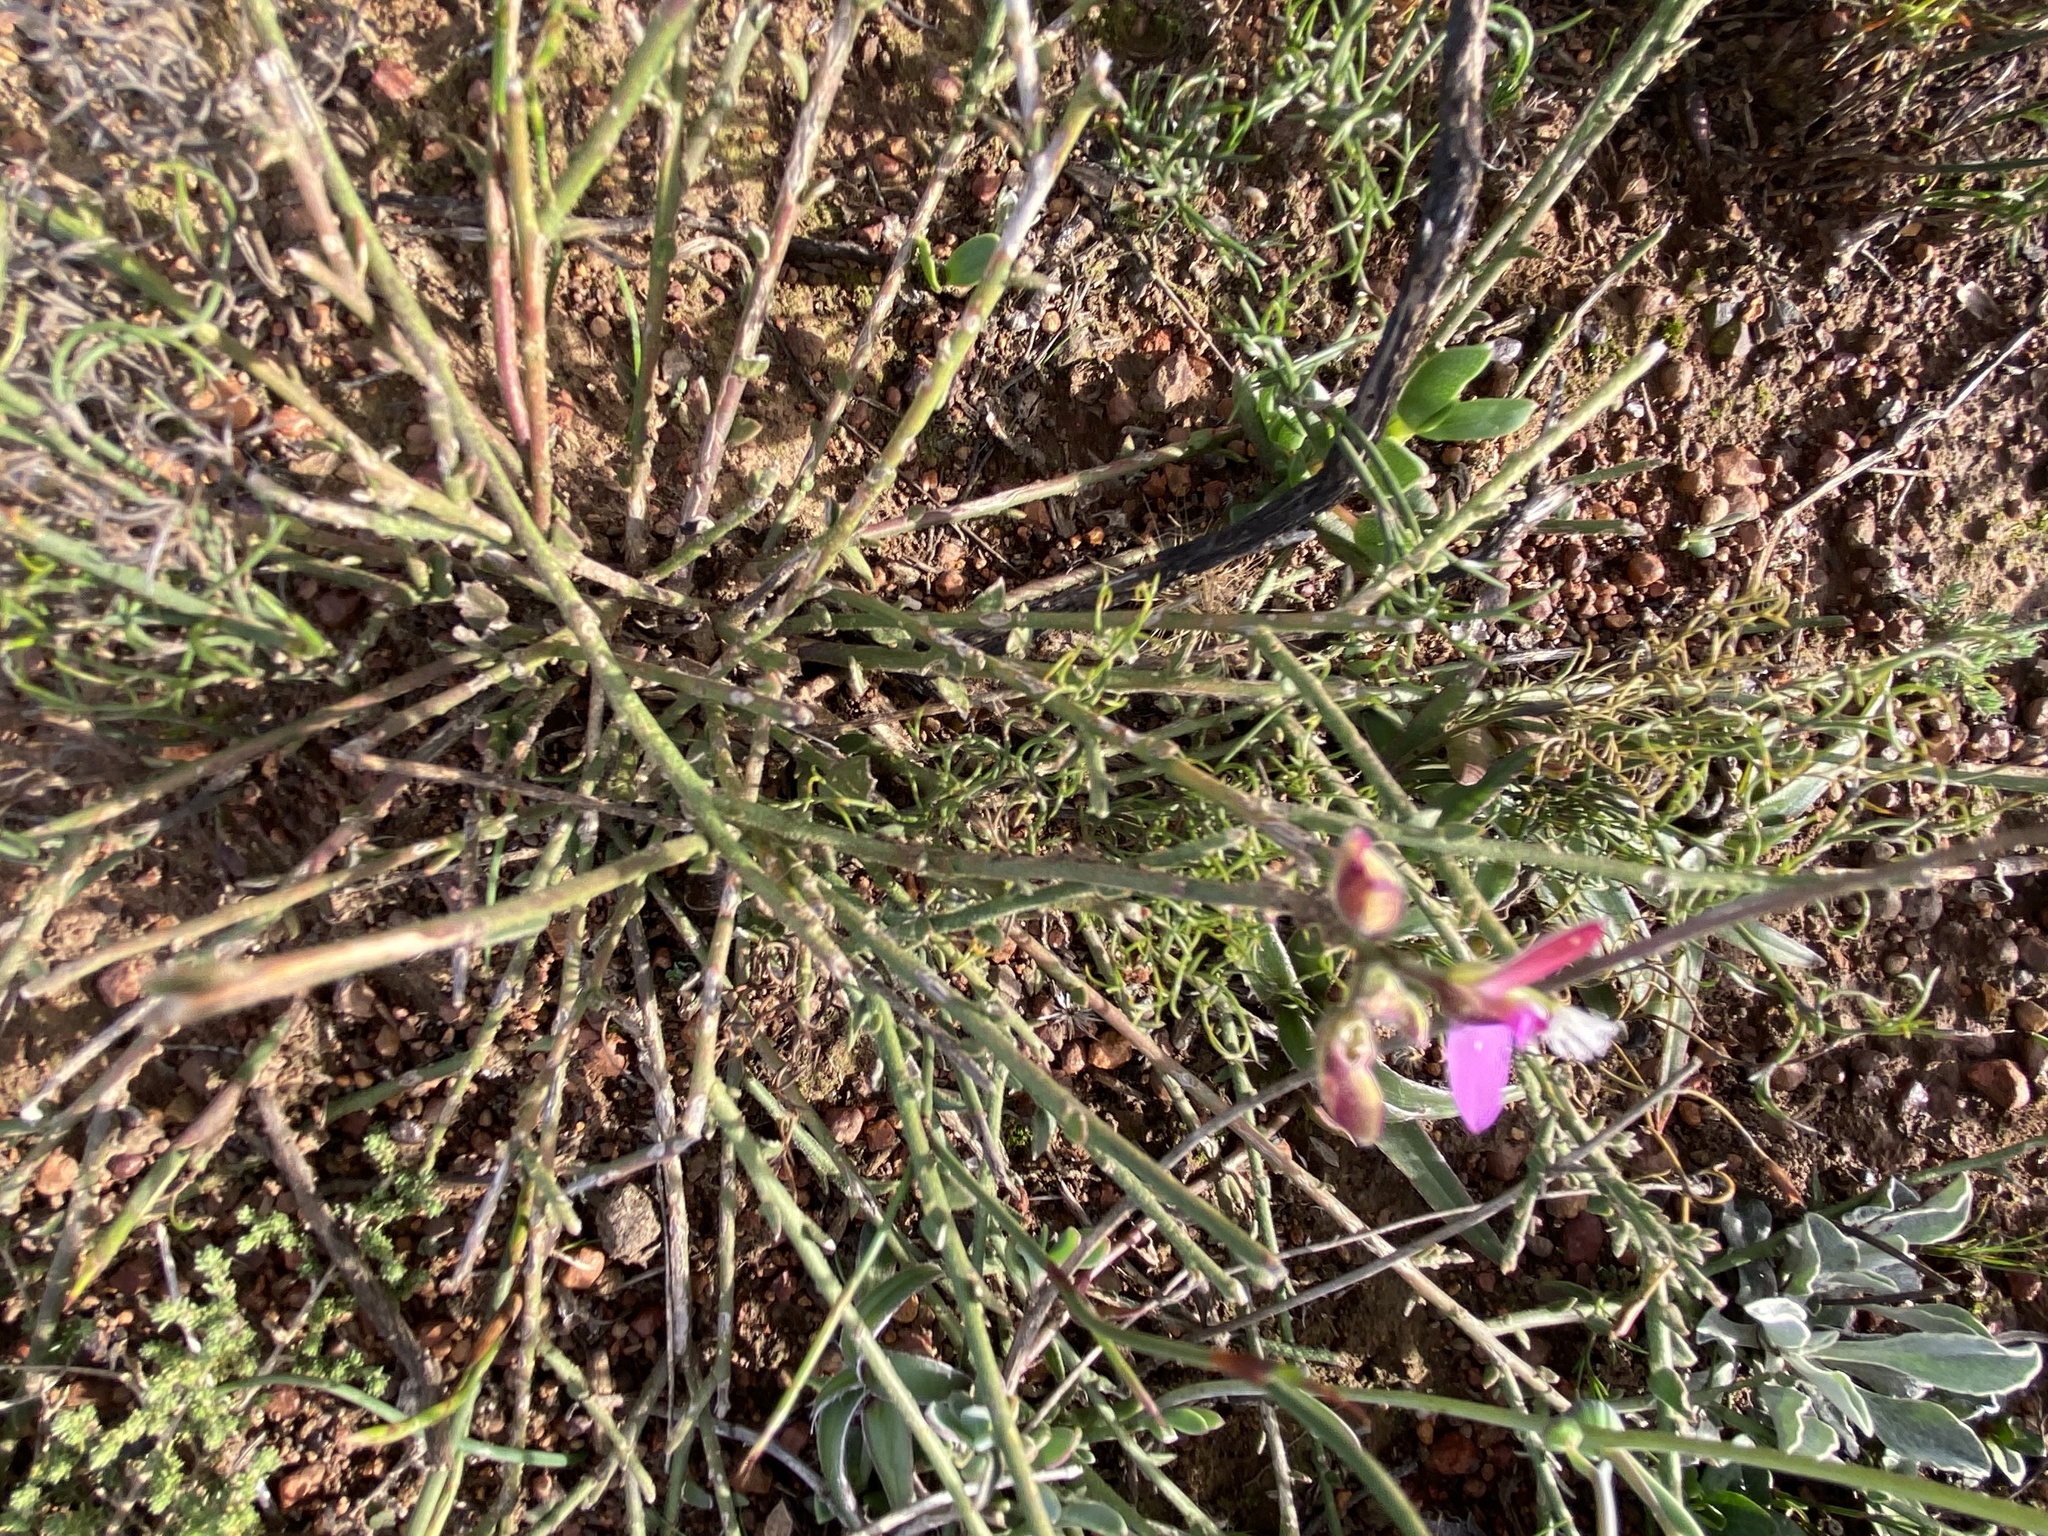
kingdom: Plantae
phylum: Tracheophyta
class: Magnoliopsida
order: Fabales
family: Polygalaceae
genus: Polygala
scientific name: Polygala pubiflora
